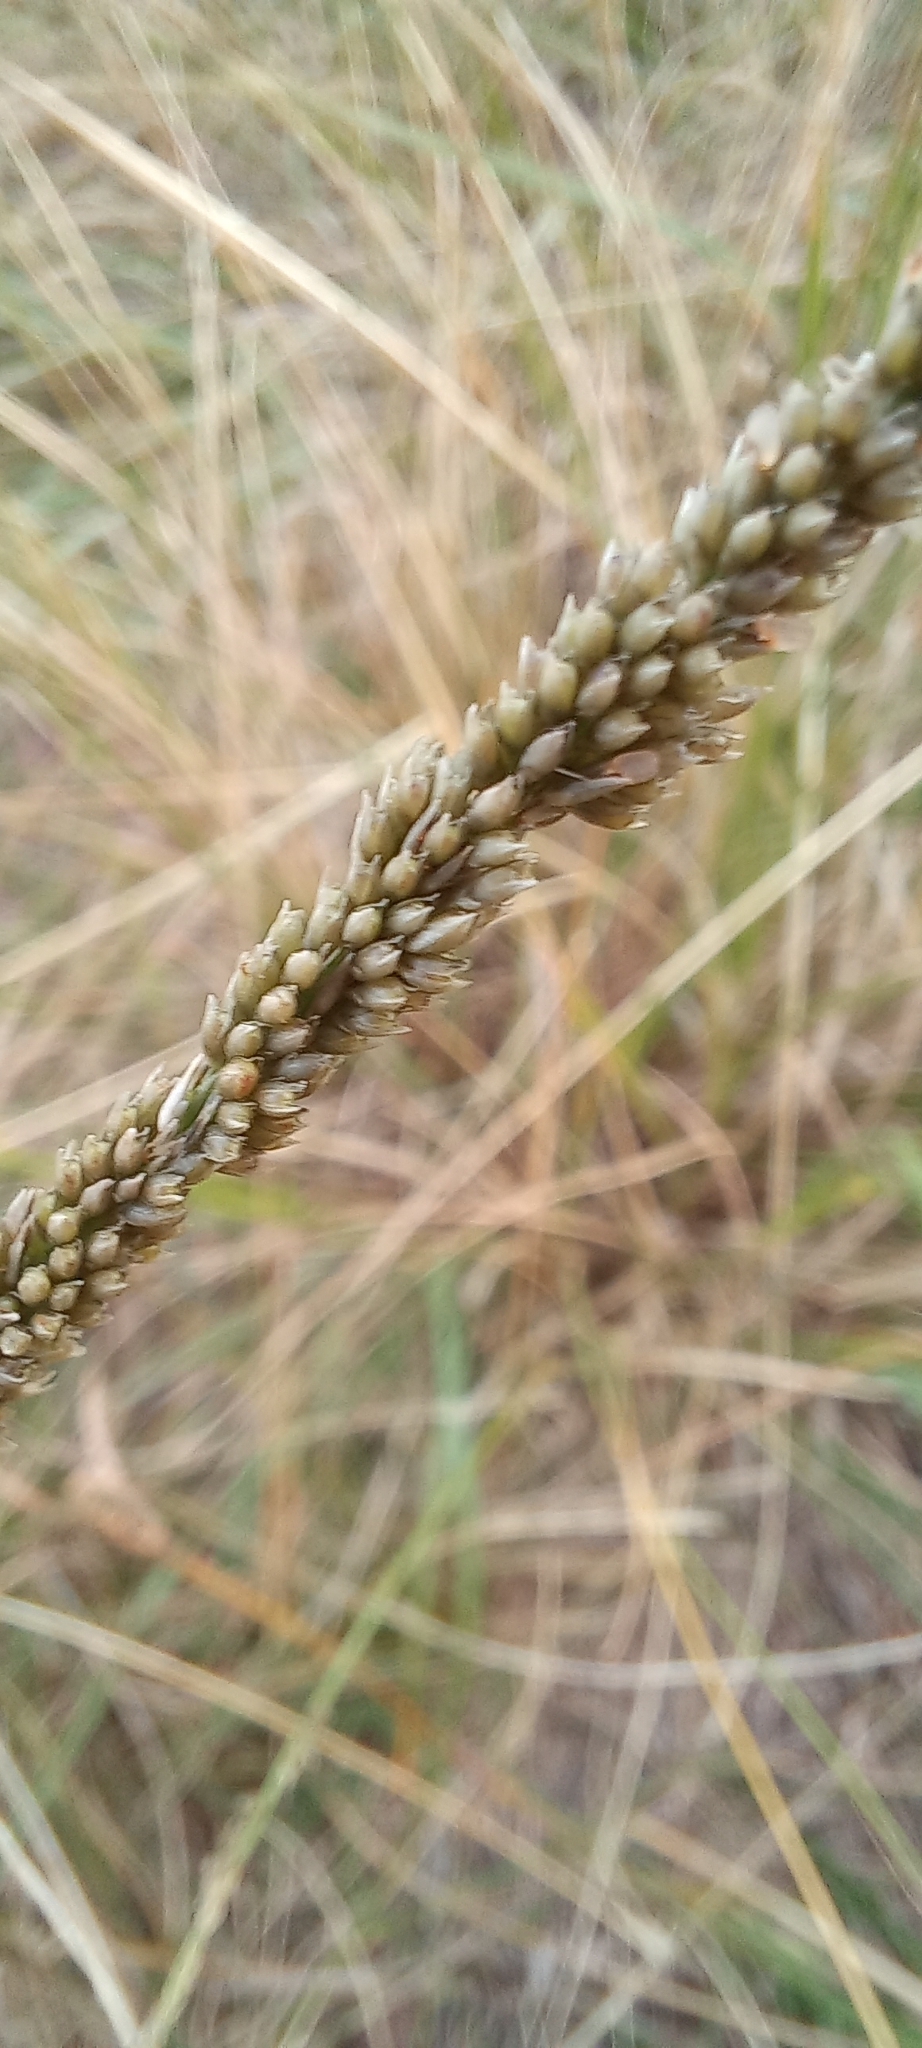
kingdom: Plantae
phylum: Tracheophyta
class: Liliopsida
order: Poales
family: Poaceae
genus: Sporobolus
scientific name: Sporobolus africanus
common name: African dropseed
